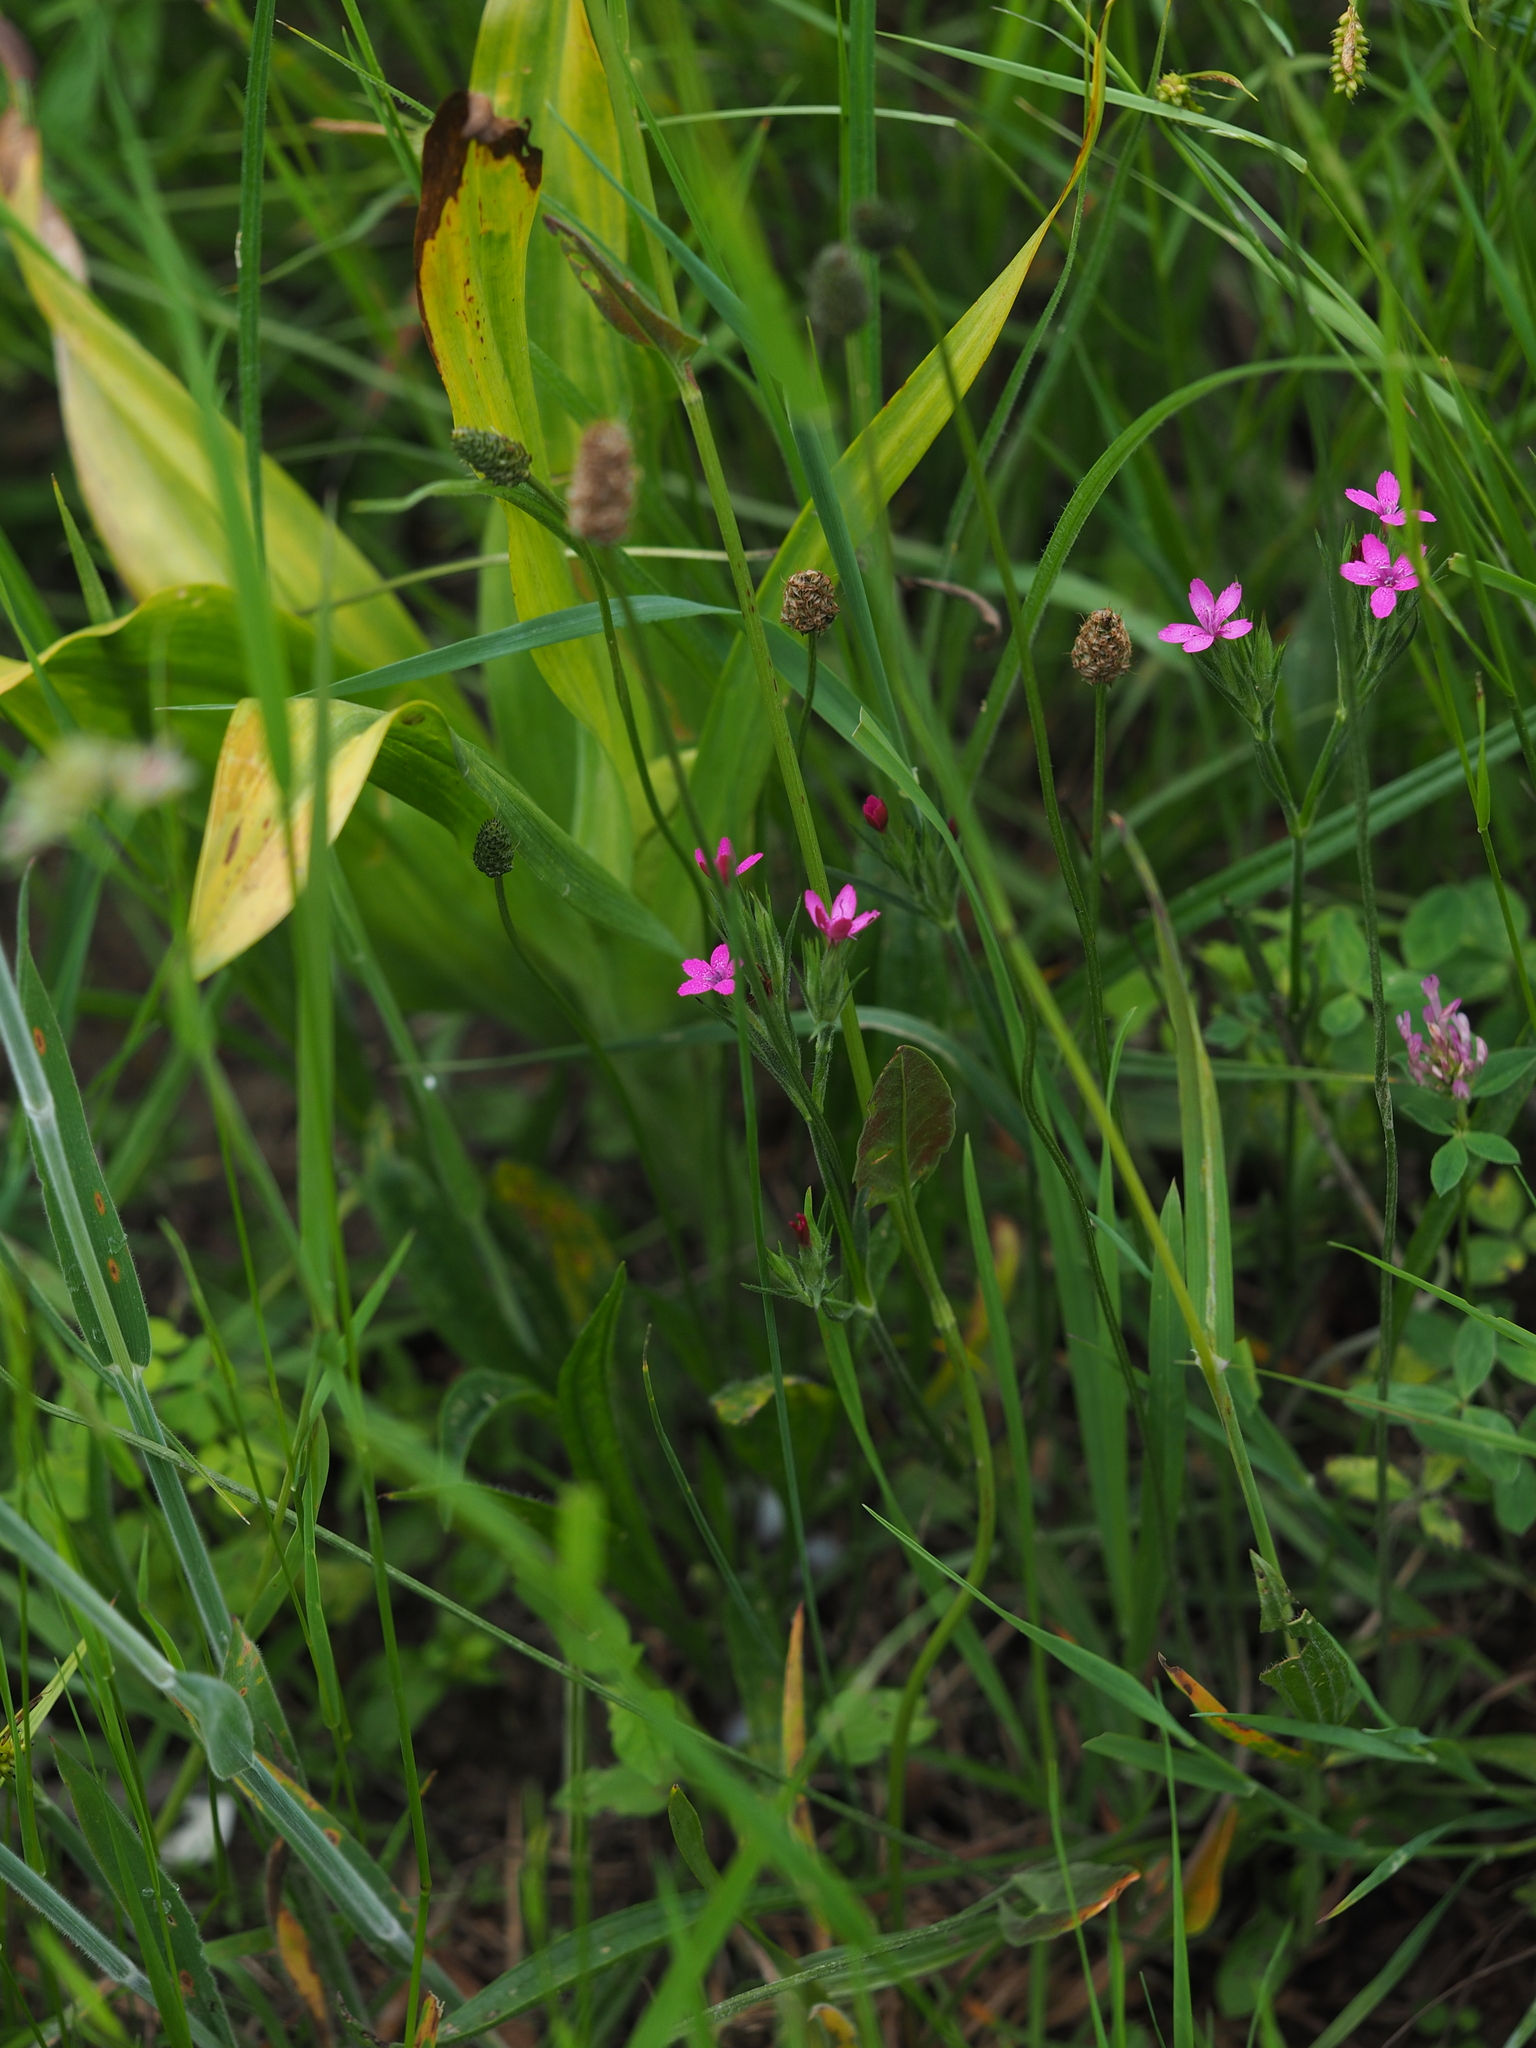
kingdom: Plantae
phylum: Tracheophyta
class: Magnoliopsida
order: Caryophyllales
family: Caryophyllaceae
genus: Dianthus
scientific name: Dianthus armeria
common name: Deptford pink
